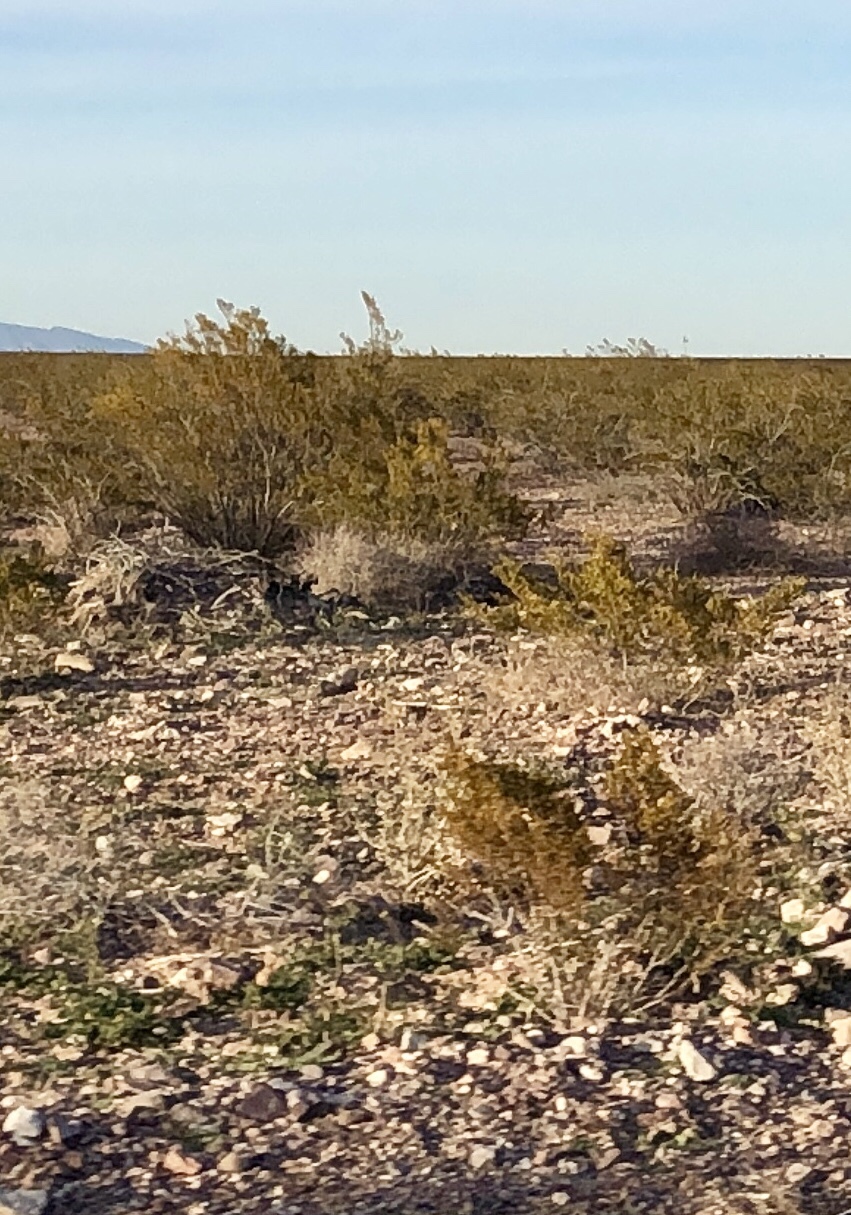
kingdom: Plantae
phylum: Tracheophyta
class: Magnoliopsida
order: Zygophyllales
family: Zygophyllaceae
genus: Larrea
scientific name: Larrea tridentata
